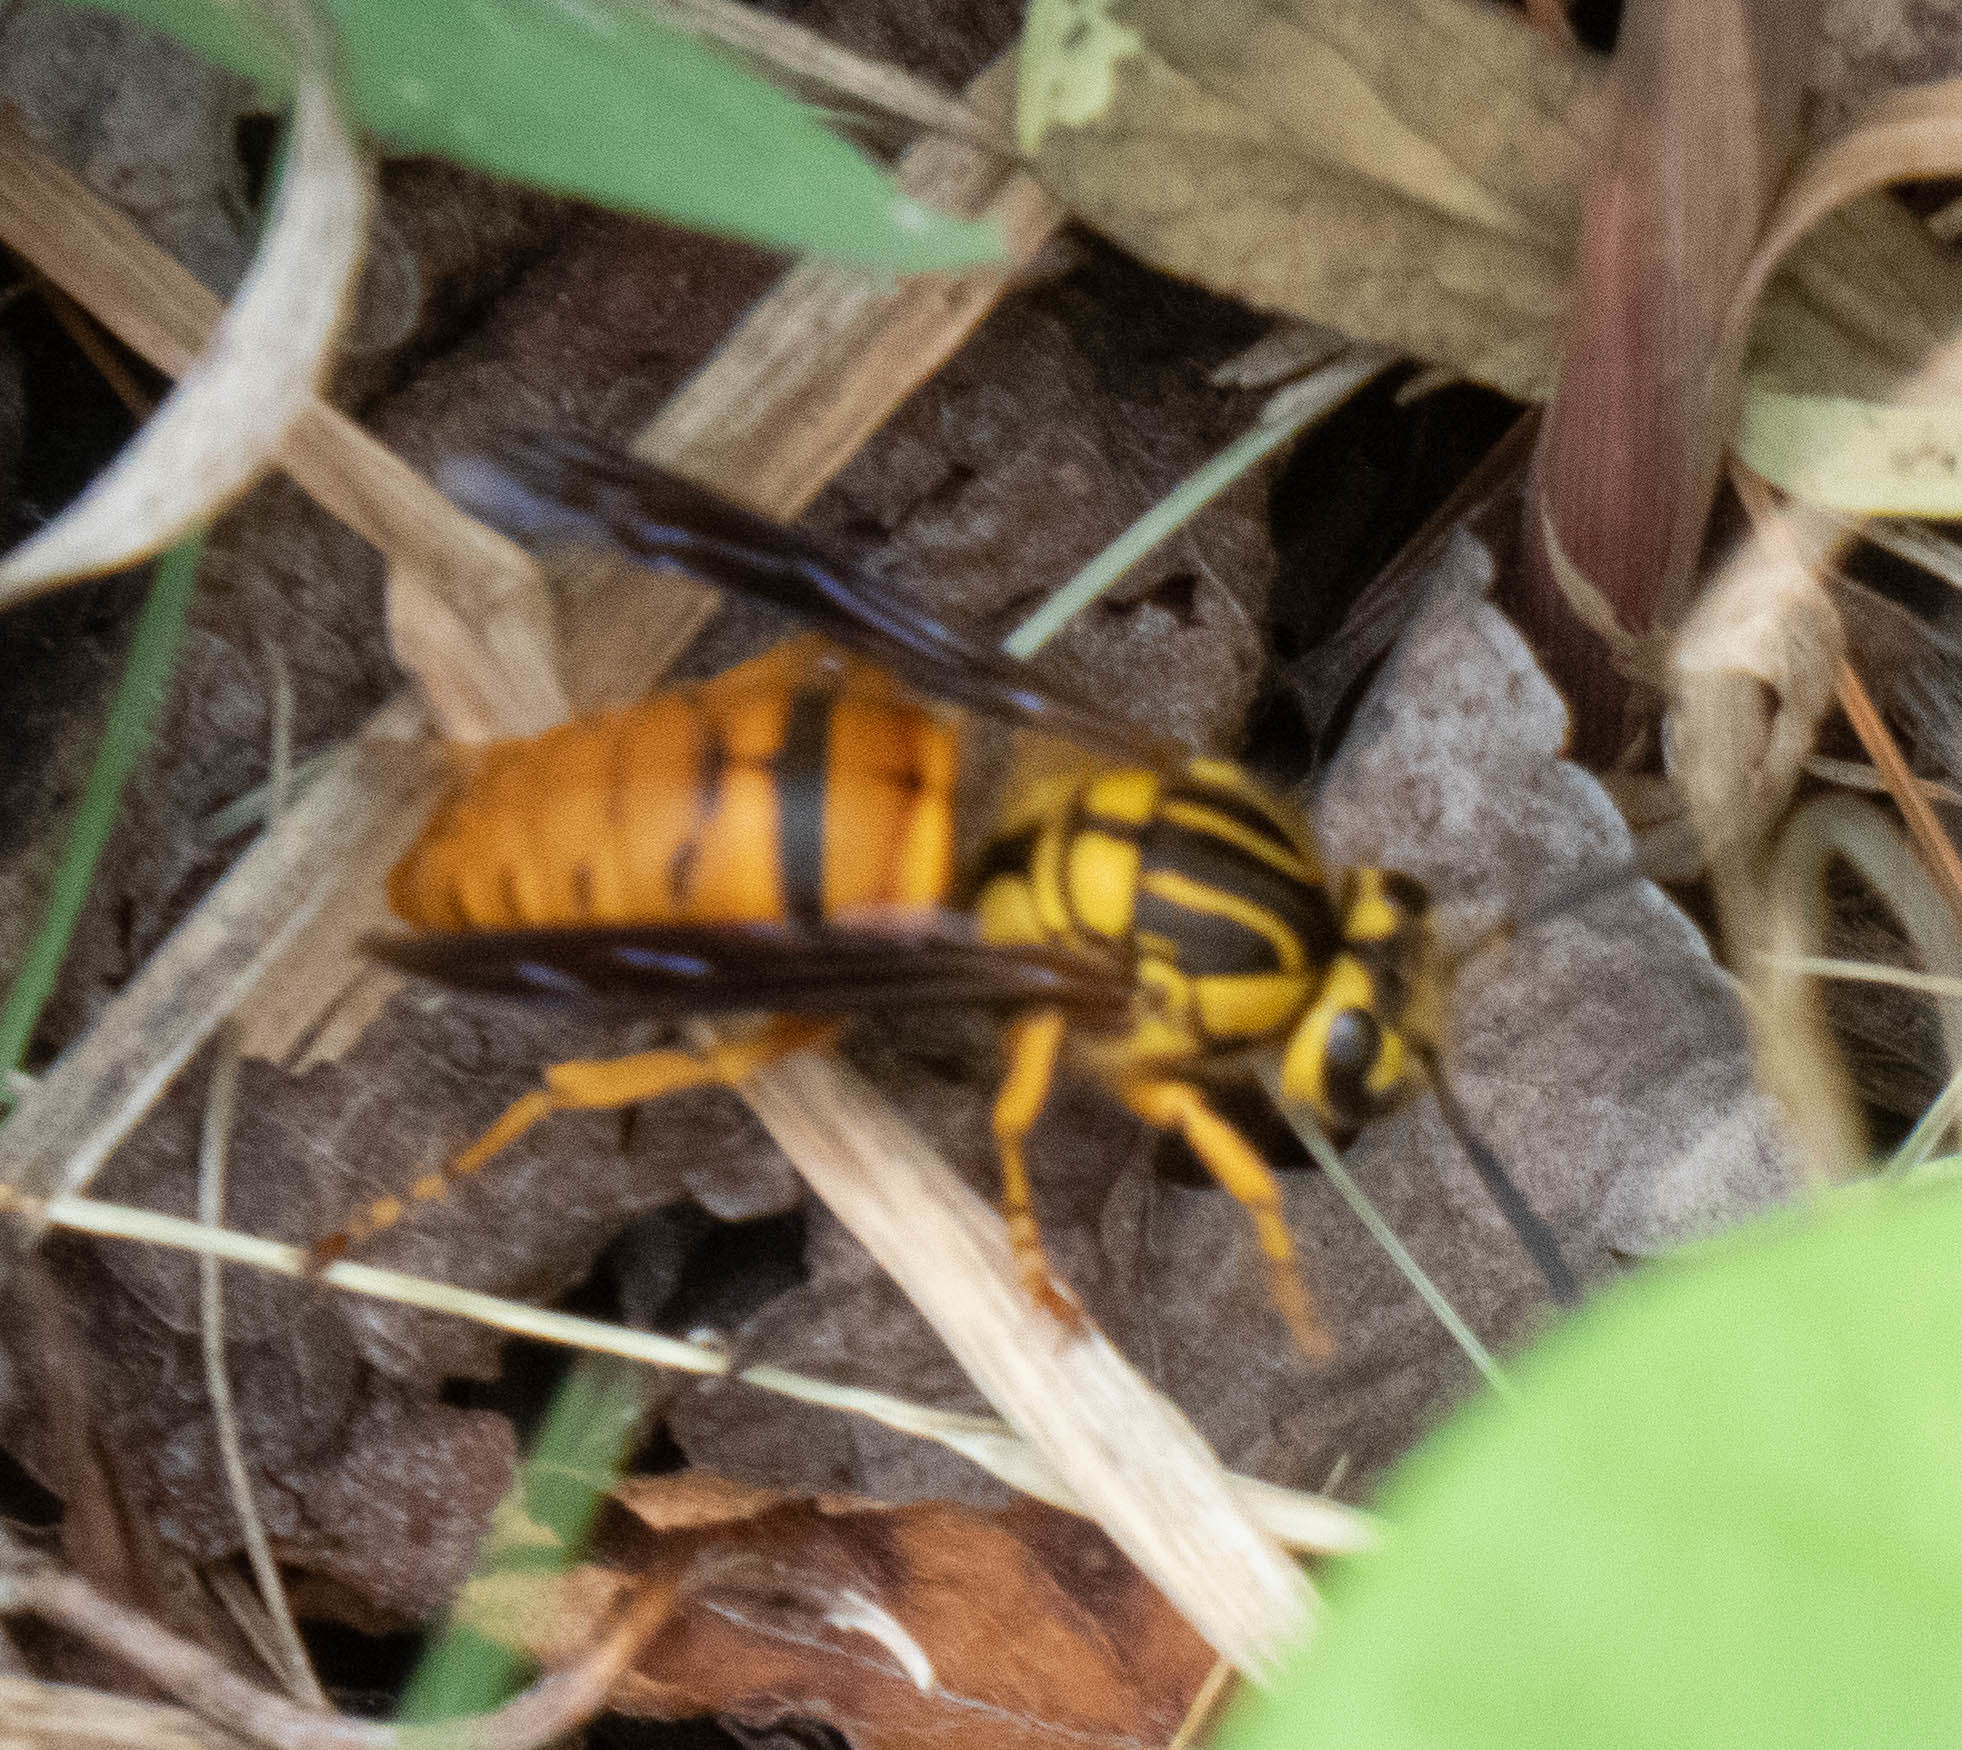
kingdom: Animalia
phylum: Arthropoda
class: Insecta
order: Hymenoptera
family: Vespidae
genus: Vespula
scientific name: Vespula squamosa
